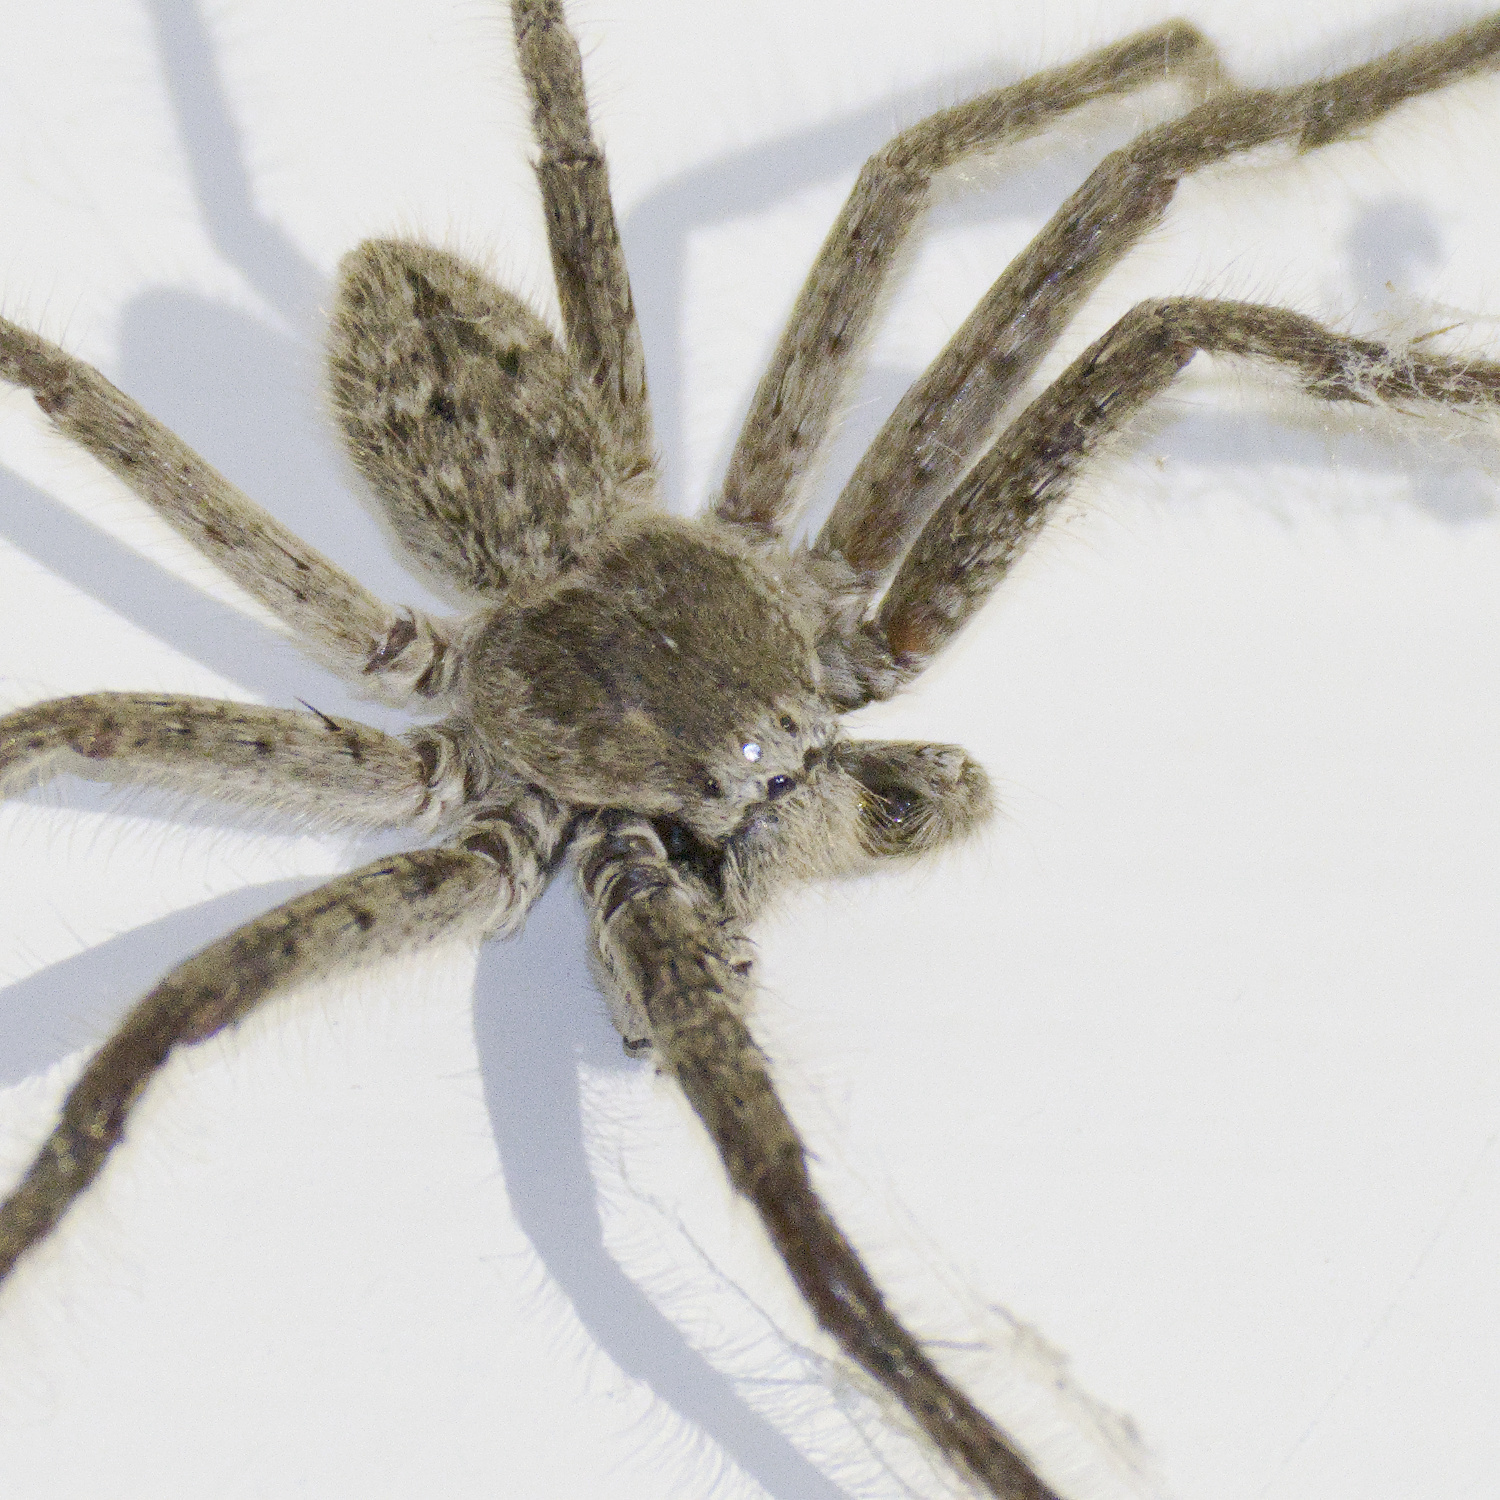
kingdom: Animalia
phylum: Arthropoda
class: Arachnida
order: Araneae
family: Sparassidae
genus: Isopedella
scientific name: Isopedella victorialis
